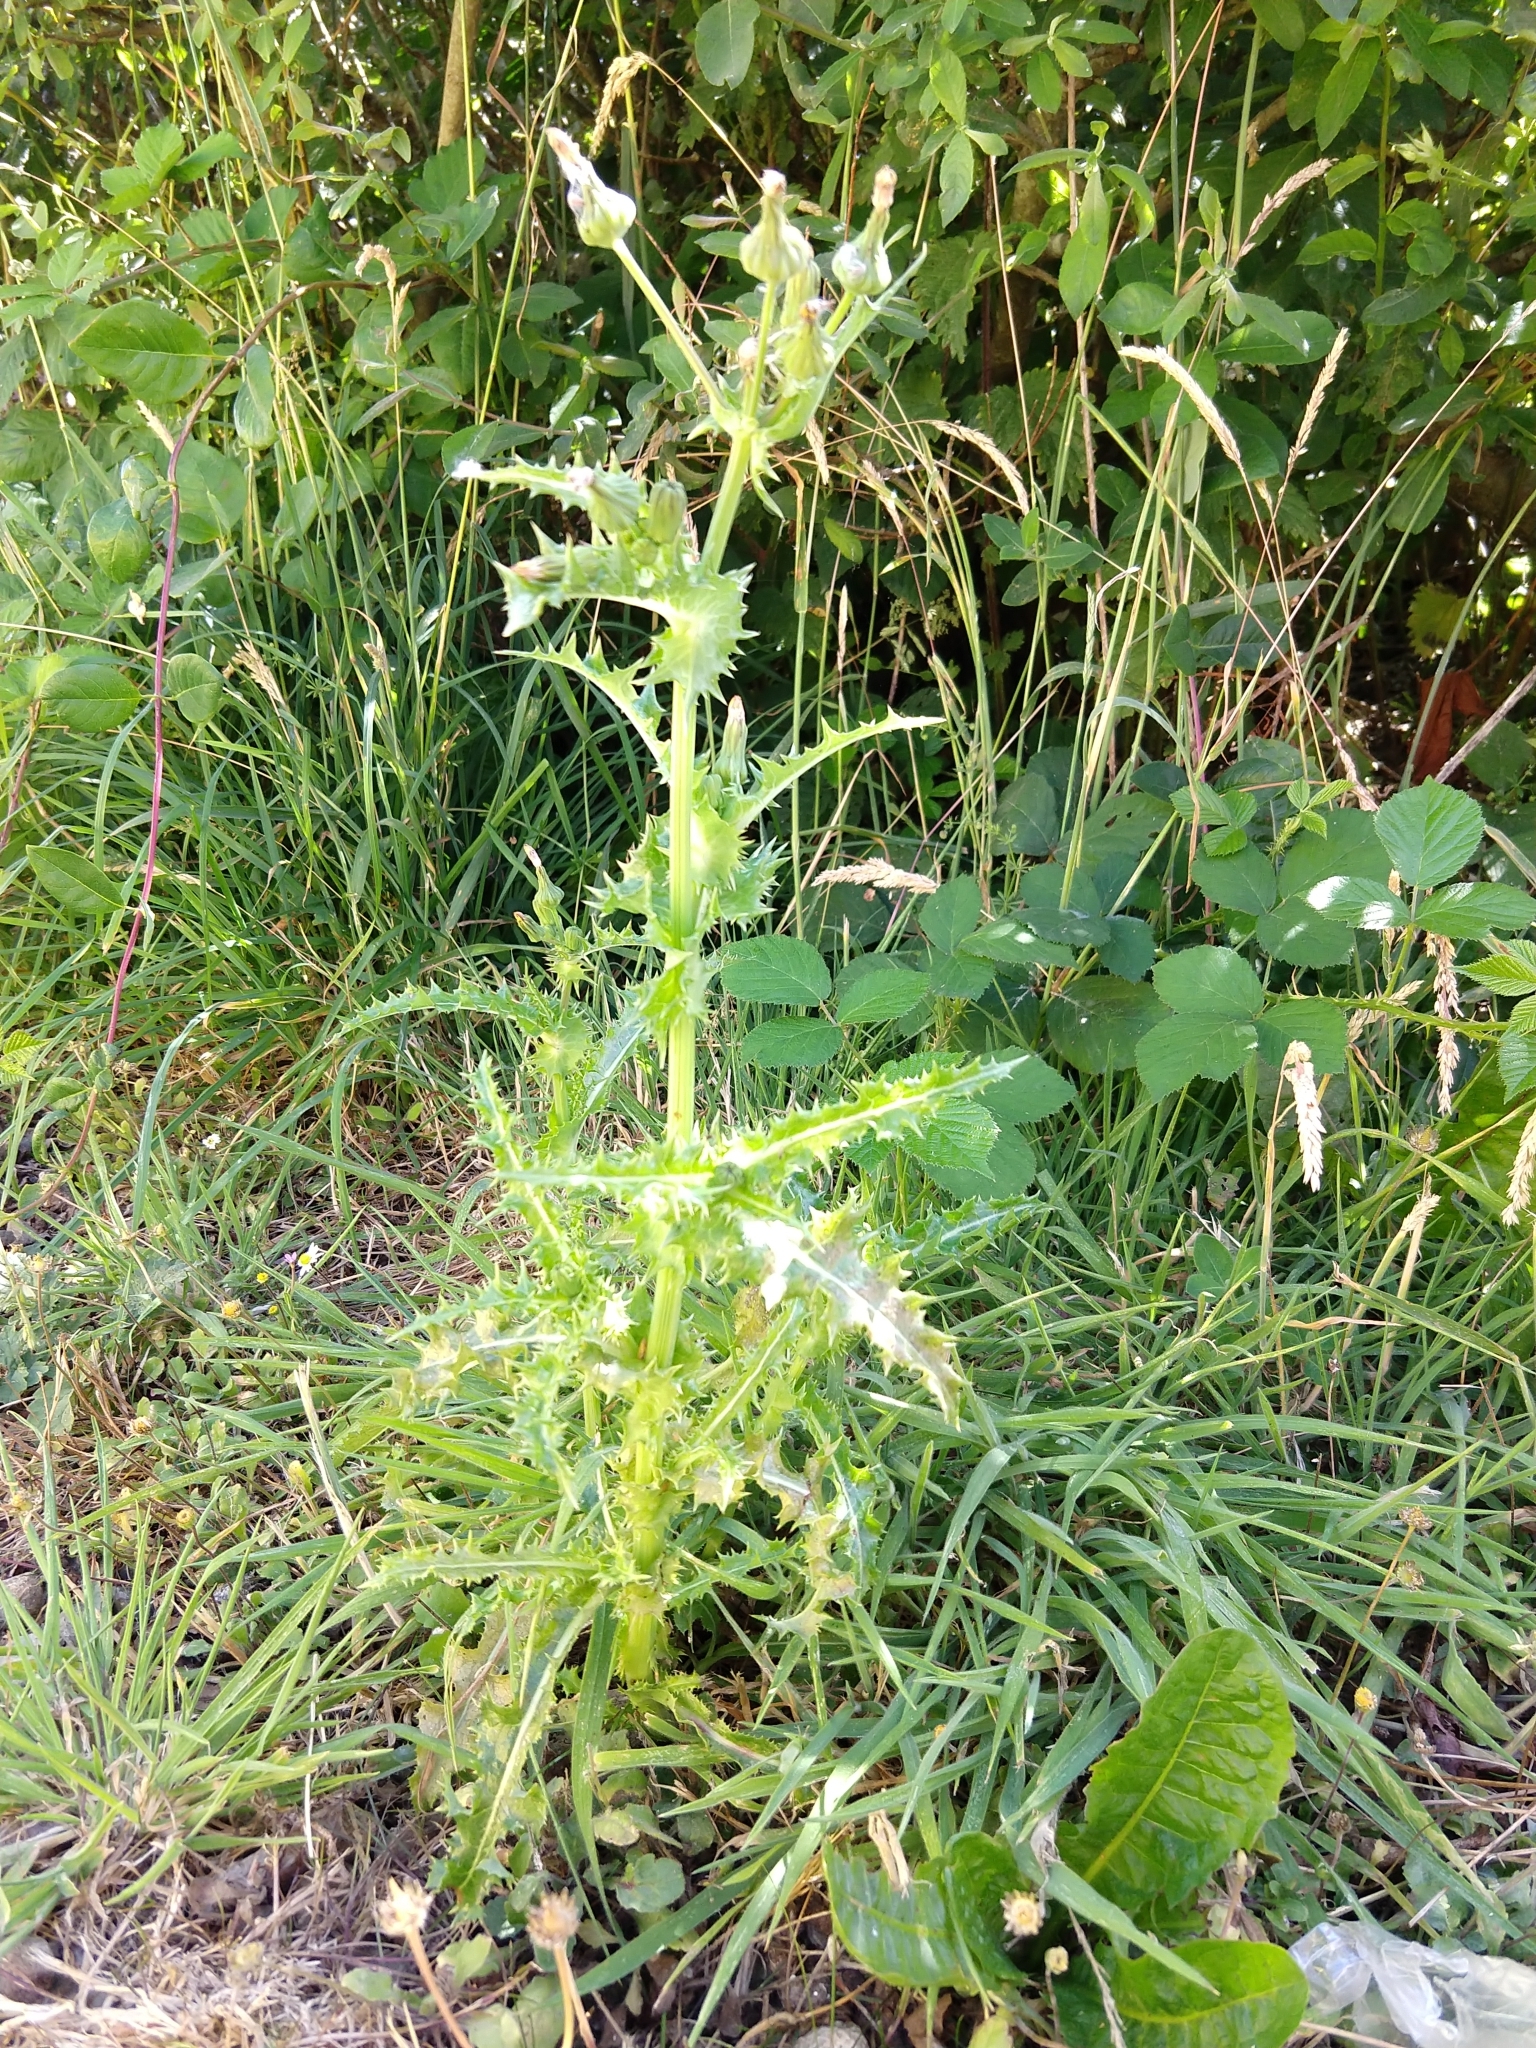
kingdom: Plantae
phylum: Tracheophyta
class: Magnoliopsida
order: Asterales
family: Asteraceae
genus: Sonchus
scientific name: Sonchus asper
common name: Prickly sow-thistle
